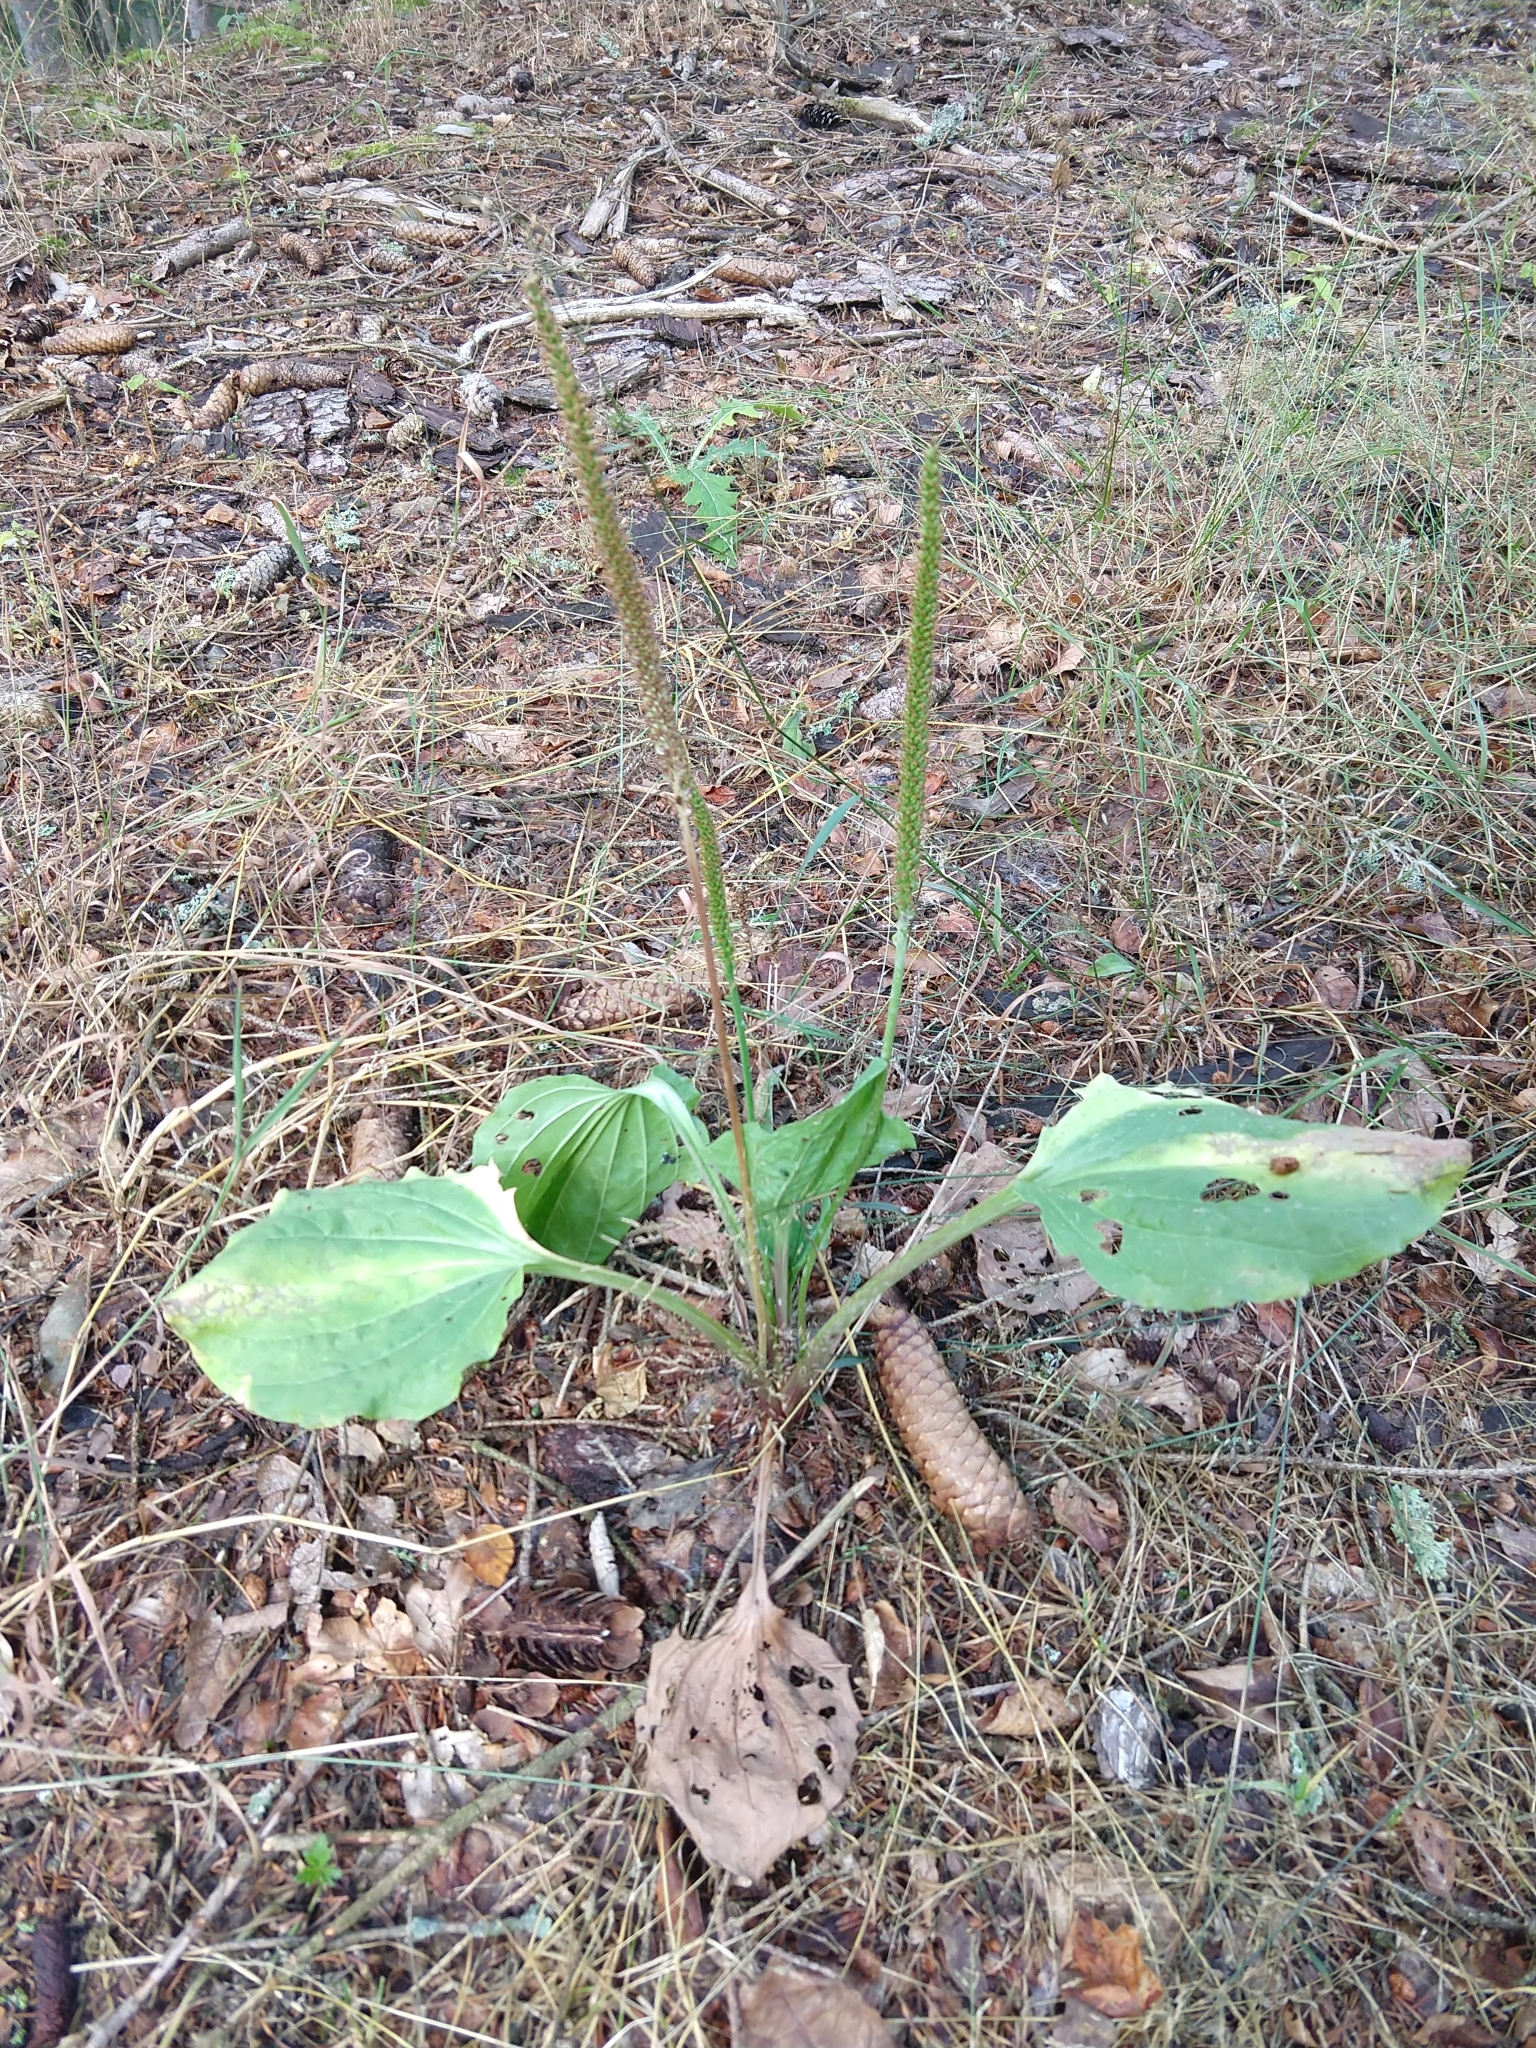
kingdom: Plantae
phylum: Tracheophyta
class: Magnoliopsida
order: Lamiales
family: Plantaginaceae
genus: Plantago
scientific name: Plantago major
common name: Common plantain
